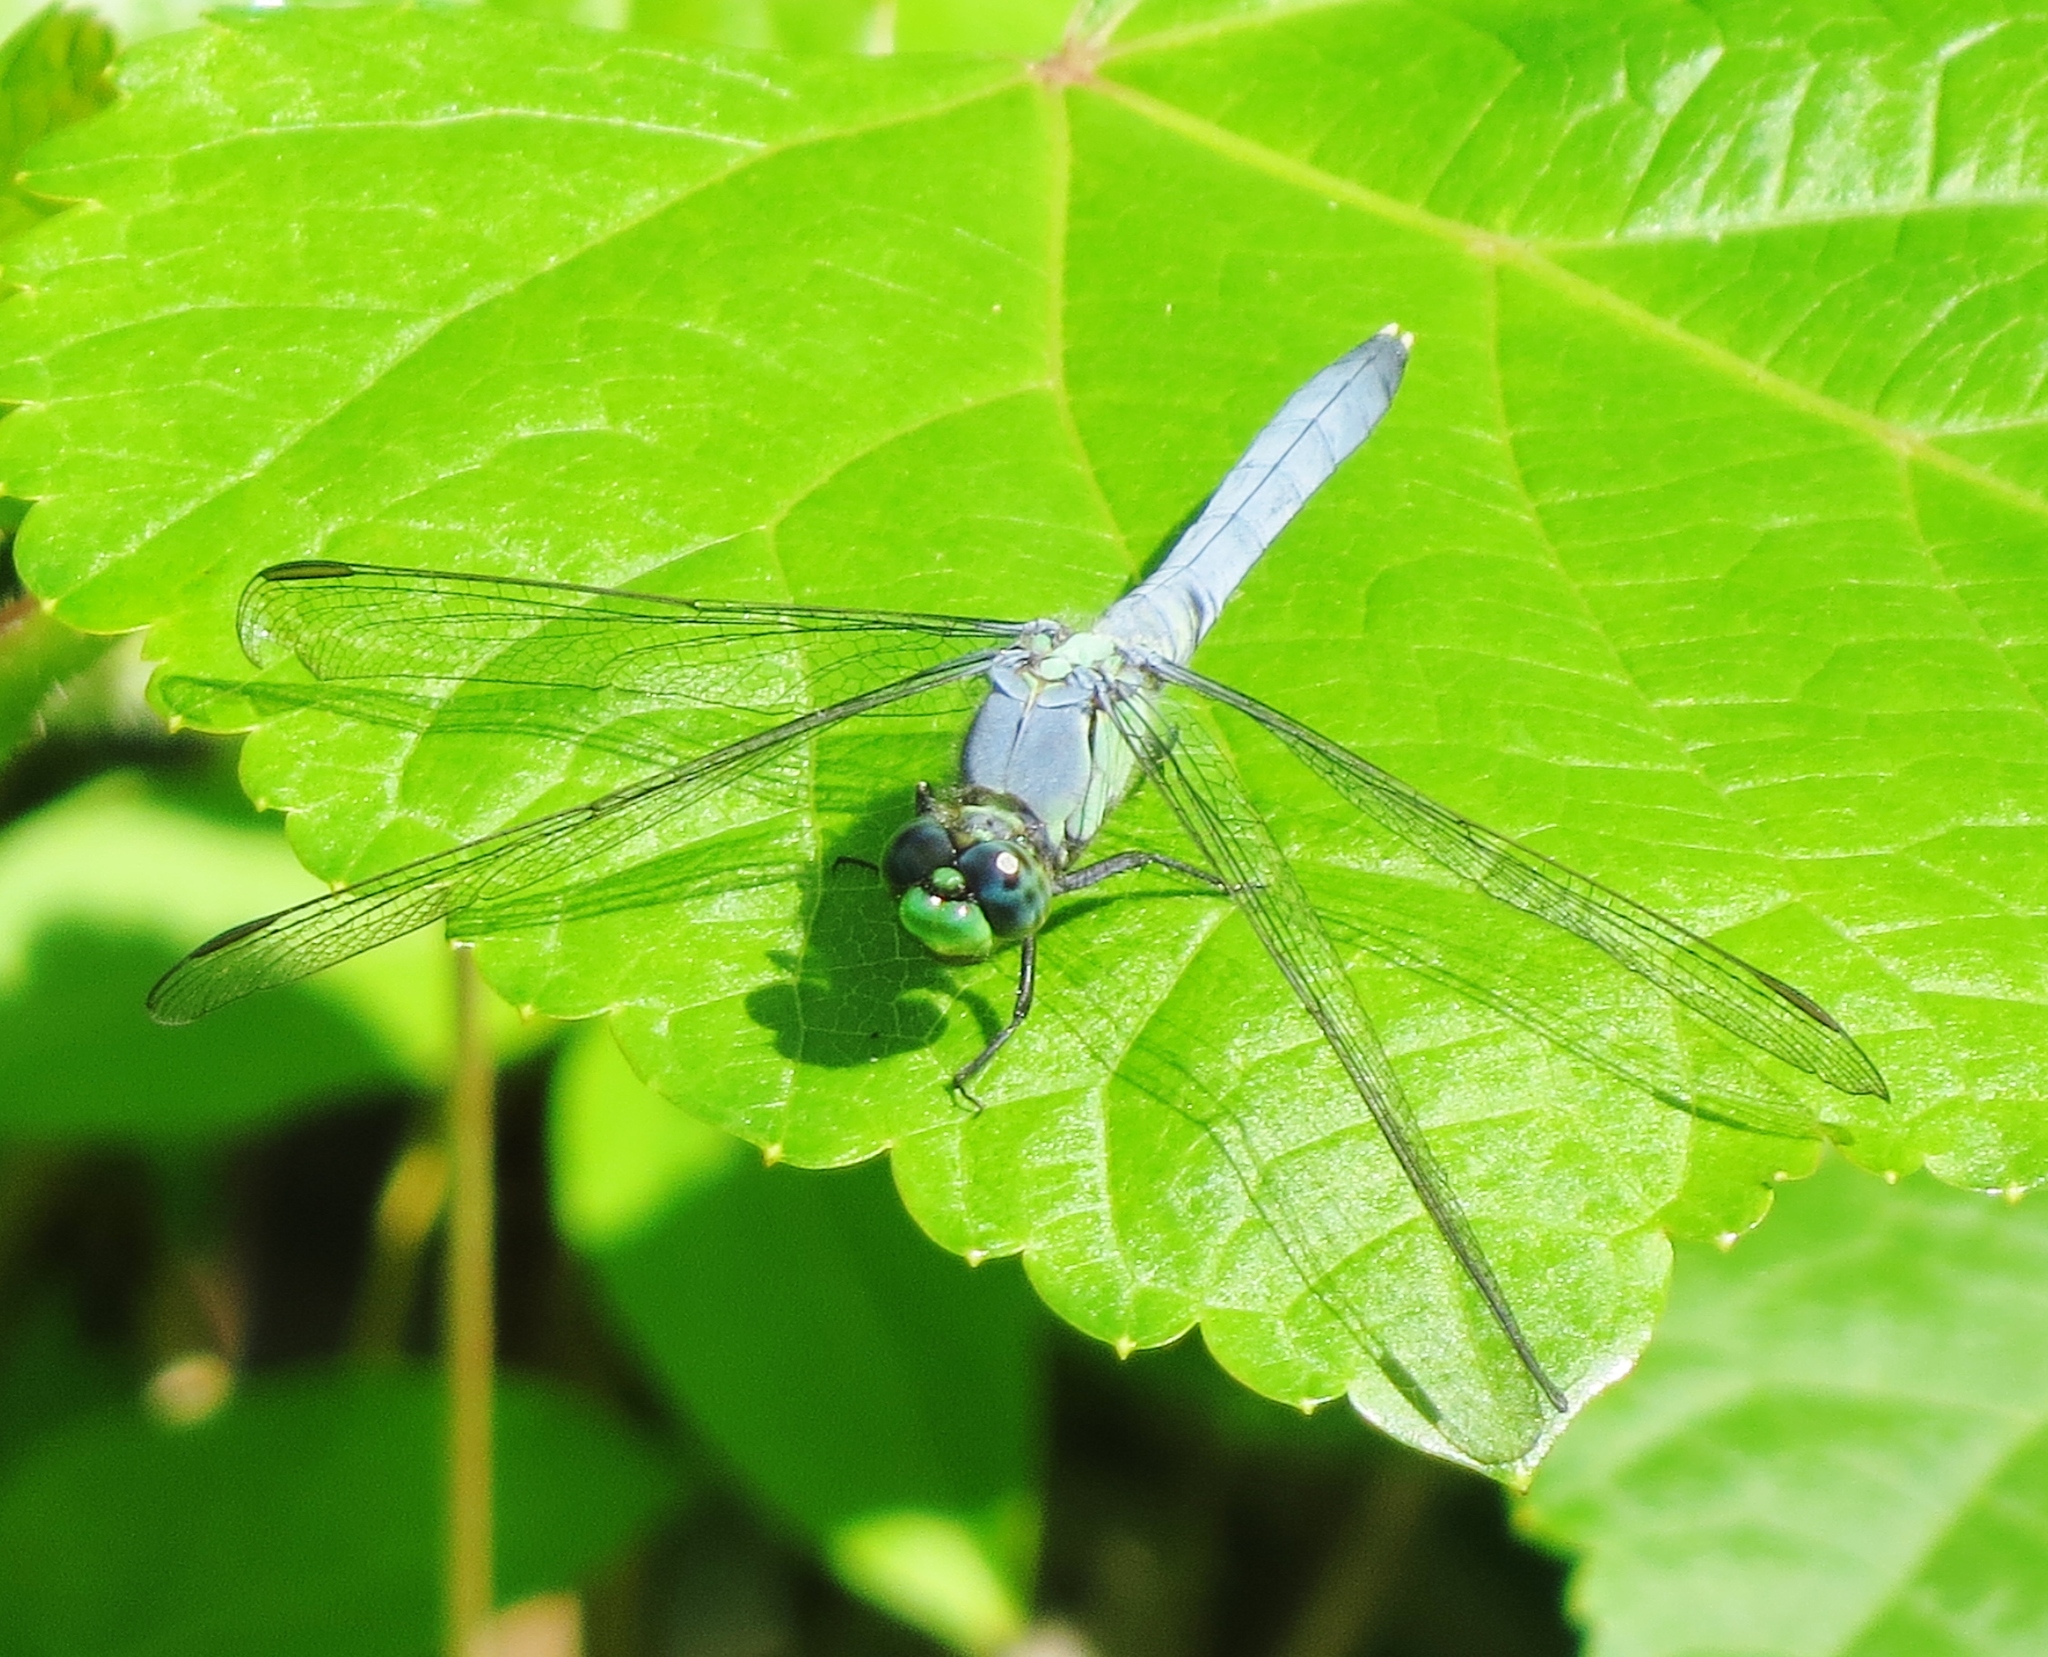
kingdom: Animalia
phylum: Arthropoda
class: Insecta
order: Odonata
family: Libellulidae
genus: Erythemis
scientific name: Erythemis simplicicollis
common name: Eastern pondhawk
